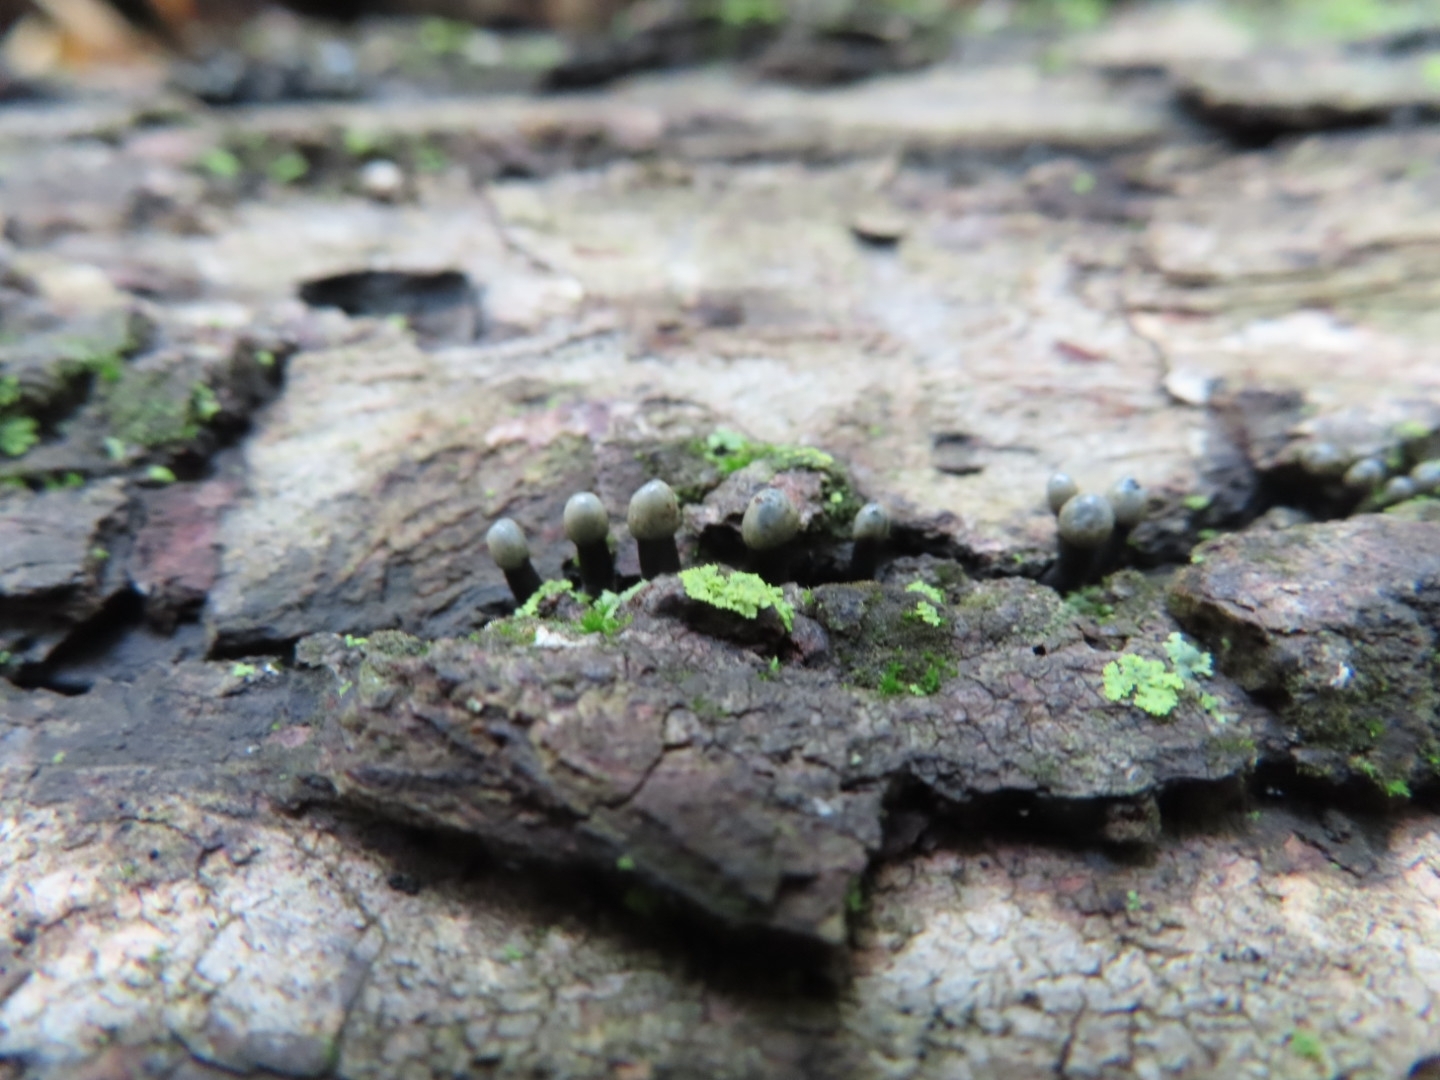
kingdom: Fungi
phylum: Ascomycota
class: Leotiomycetes
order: Helotiales
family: Bulgariaceae
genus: Holwaya
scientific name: Holwaya mucida
